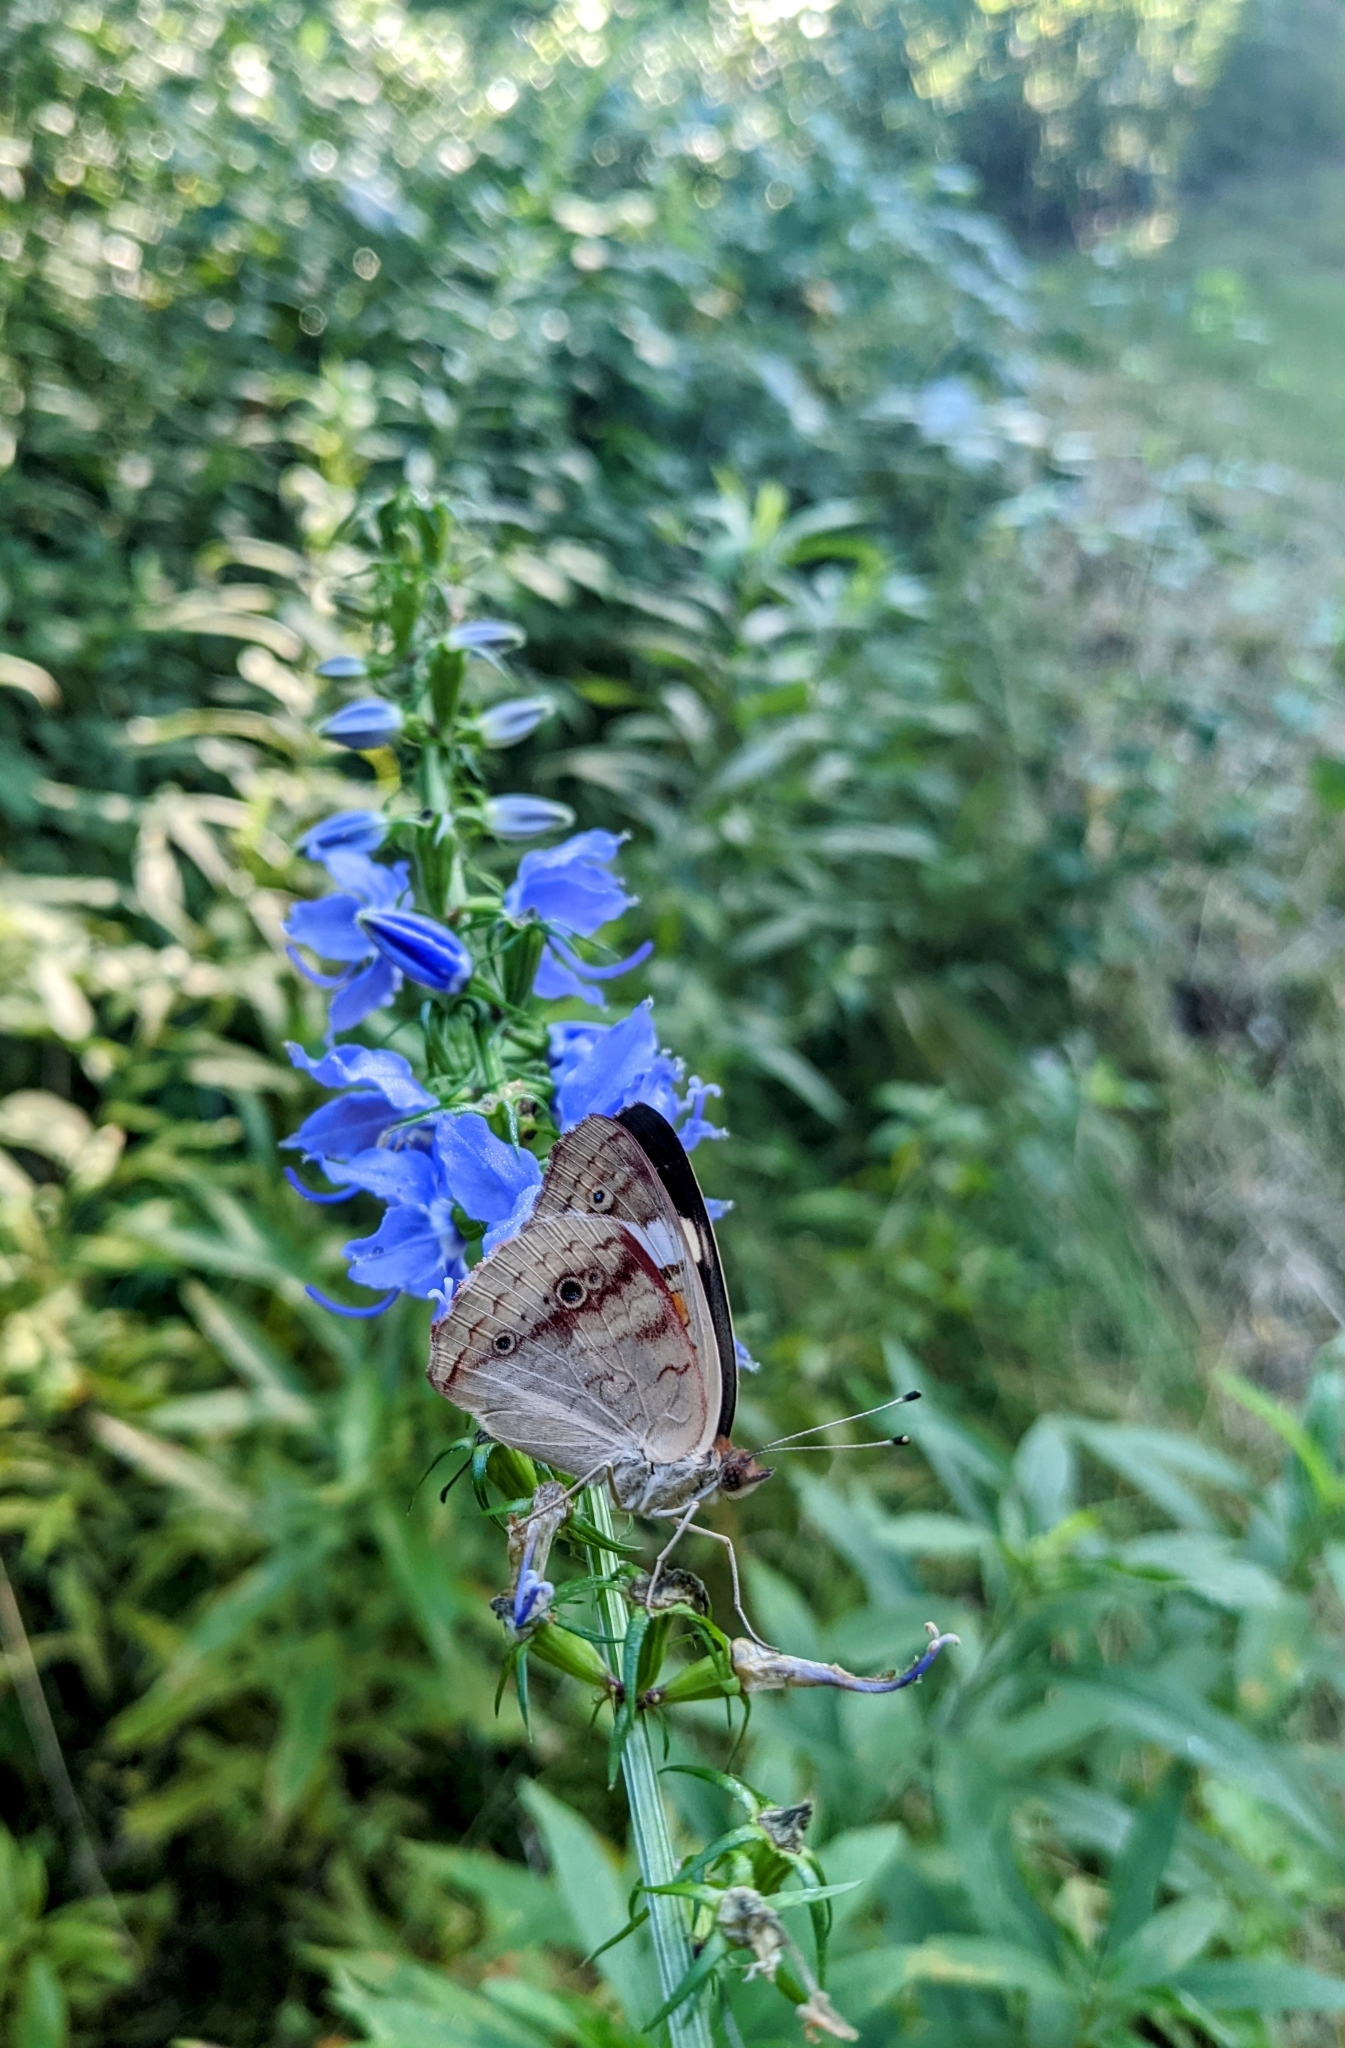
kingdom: Animalia
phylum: Arthropoda
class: Insecta
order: Lepidoptera
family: Nymphalidae
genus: Junonia
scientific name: Junonia coenia
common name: Common buckeye
